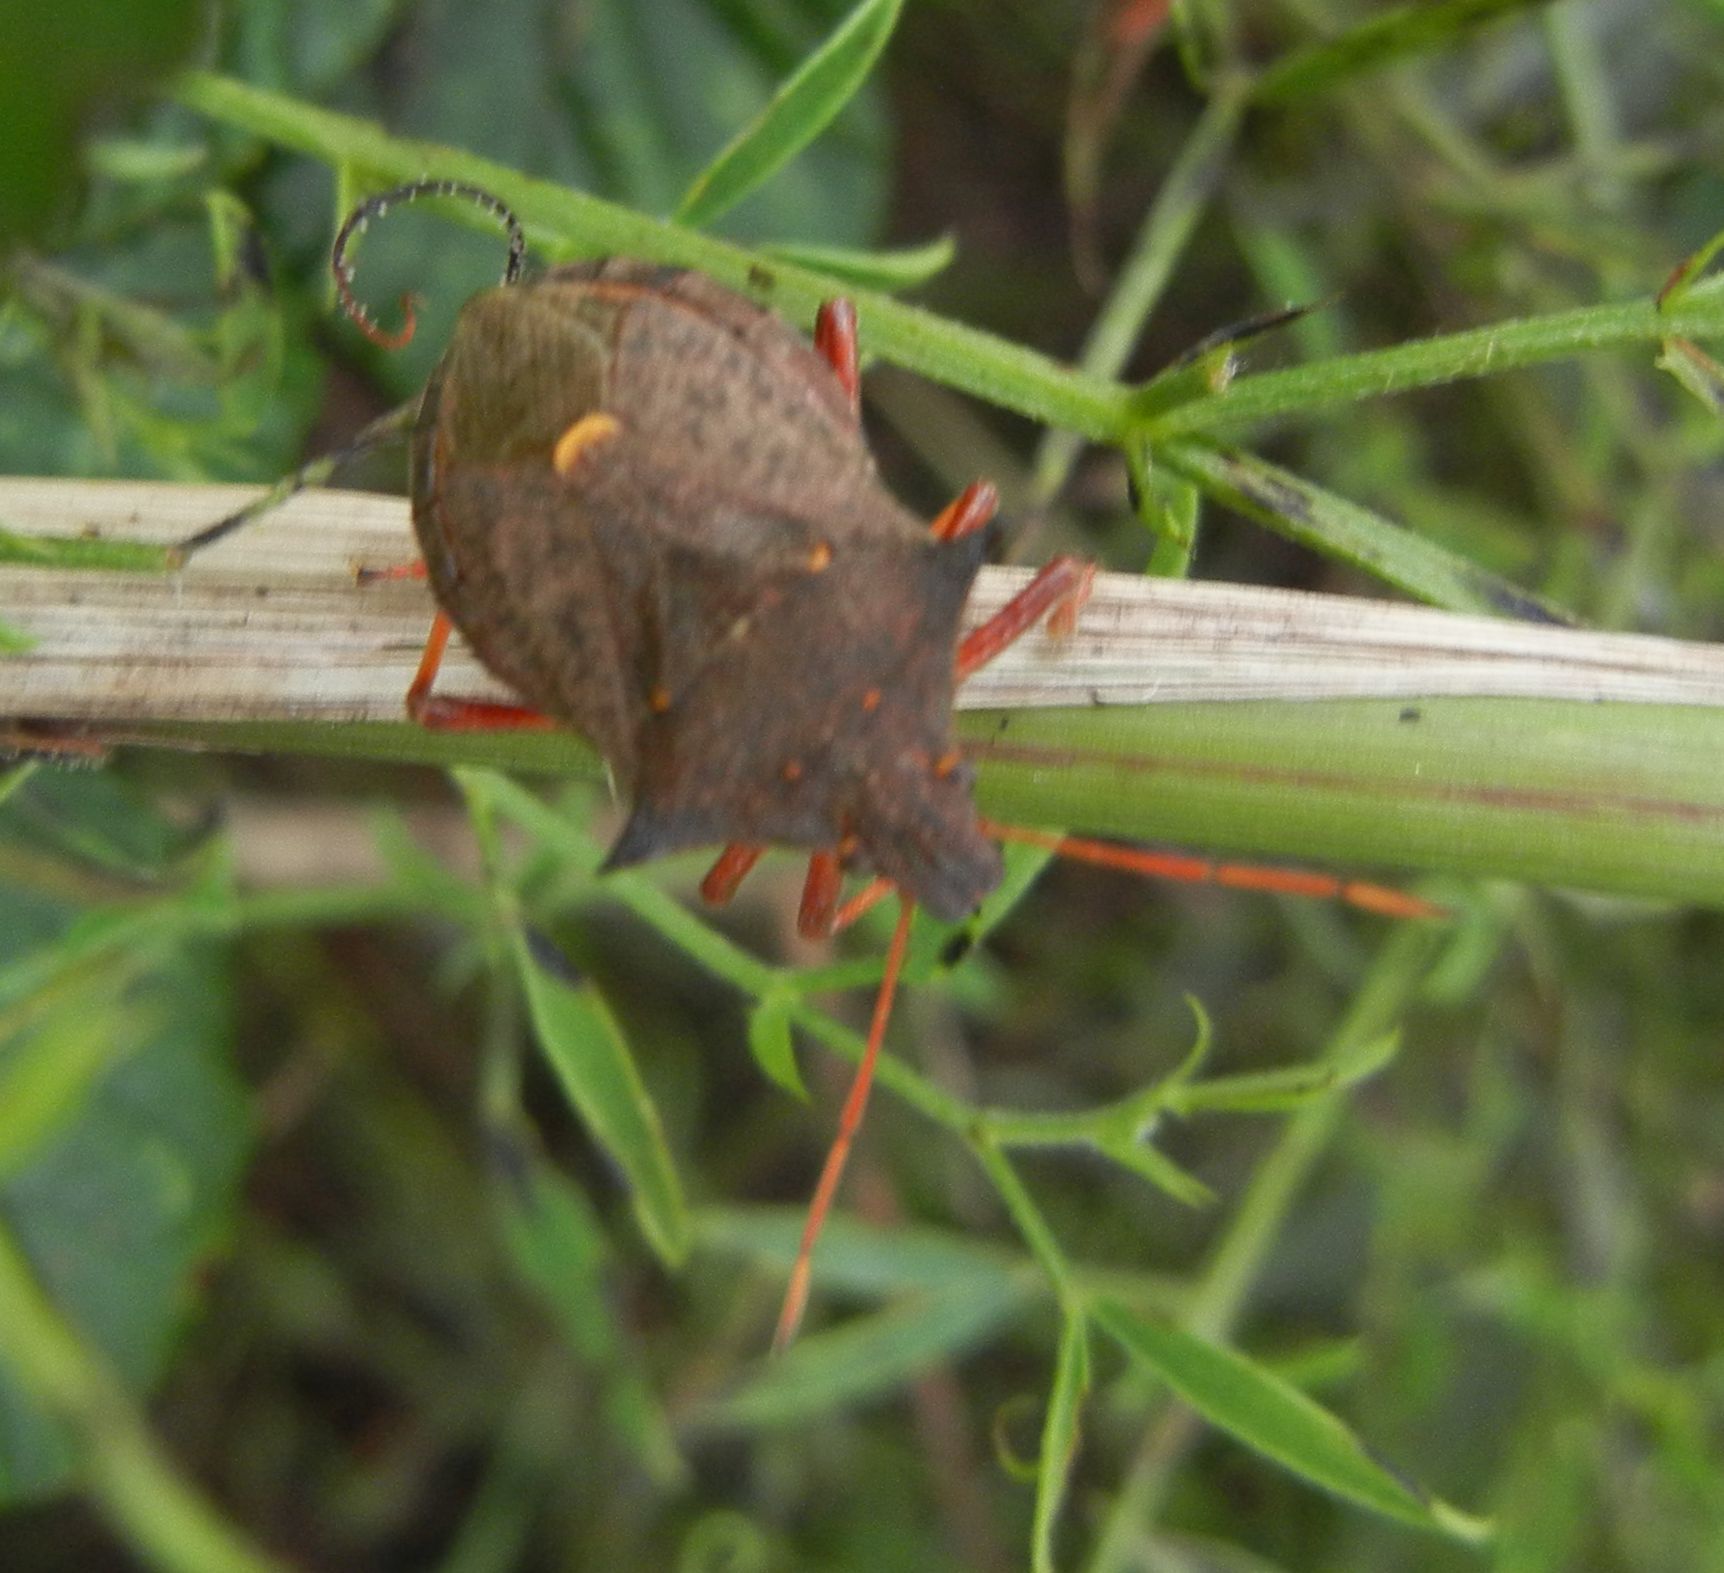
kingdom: Animalia
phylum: Arthropoda
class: Insecta
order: Hemiptera
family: Pentatomidae
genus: Picromerus
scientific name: Picromerus bidens
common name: Spiked shieldbug
